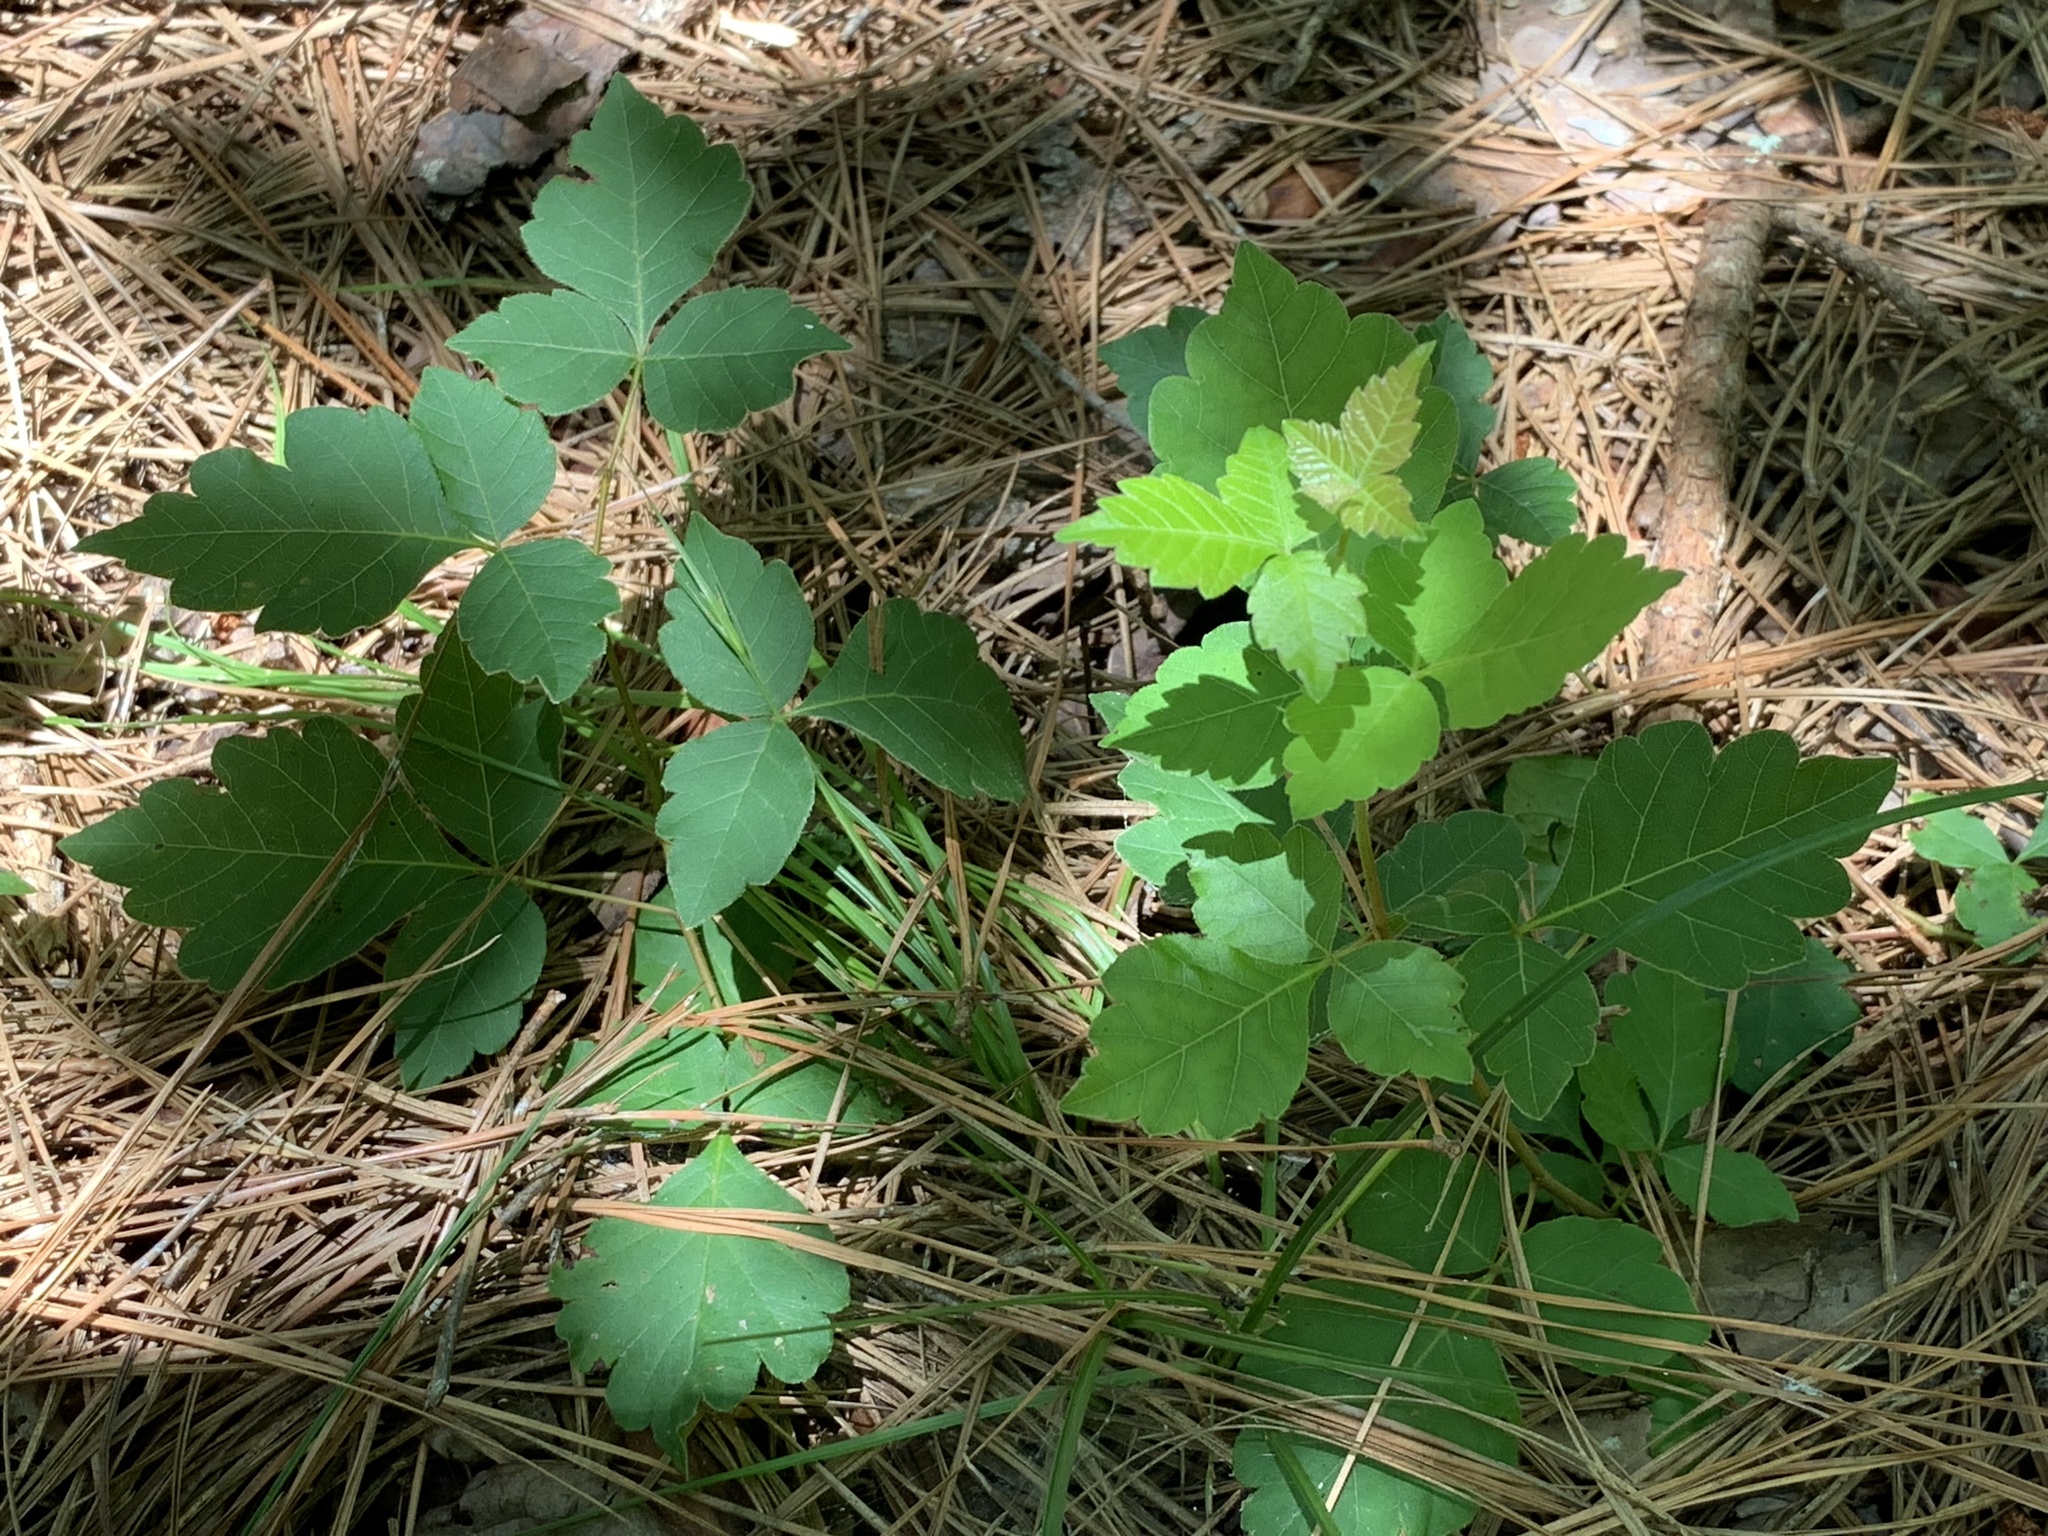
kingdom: Plantae
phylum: Tracheophyta
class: Magnoliopsida
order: Sapindales
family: Anacardiaceae
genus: Rhus
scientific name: Rhus aromatica
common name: Aromatic sumac
